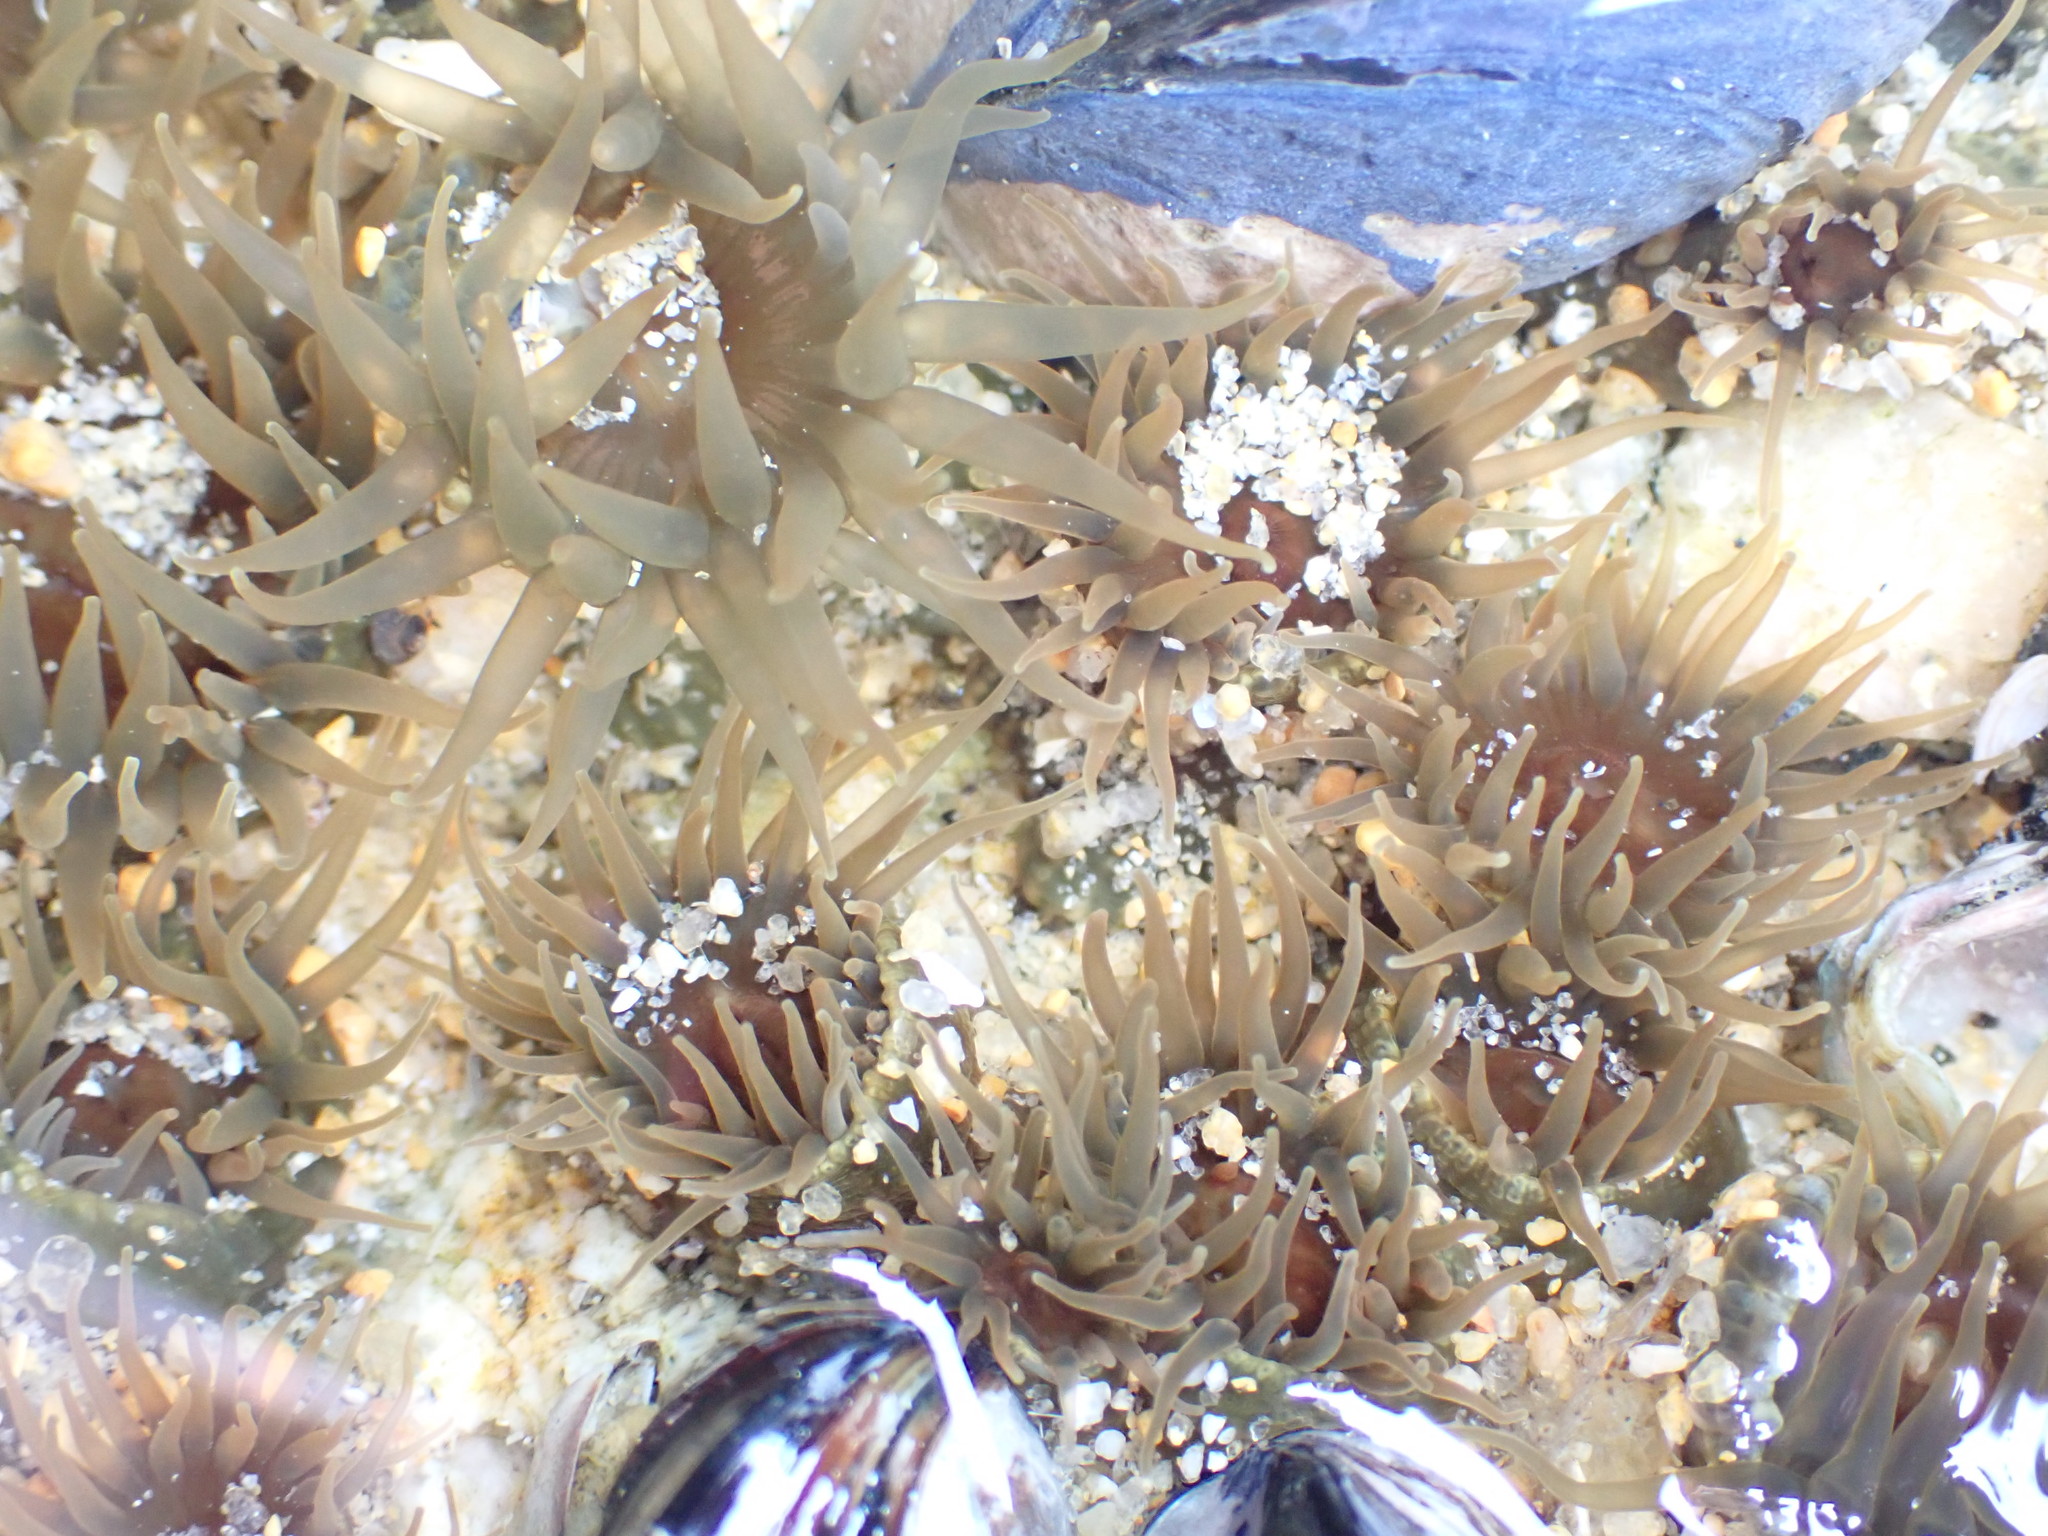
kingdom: Animalia
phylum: Cnidaria
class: Anthozoa
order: Actiniaria
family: Actiniidae
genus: Isactinia
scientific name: Isactinia olivacea
